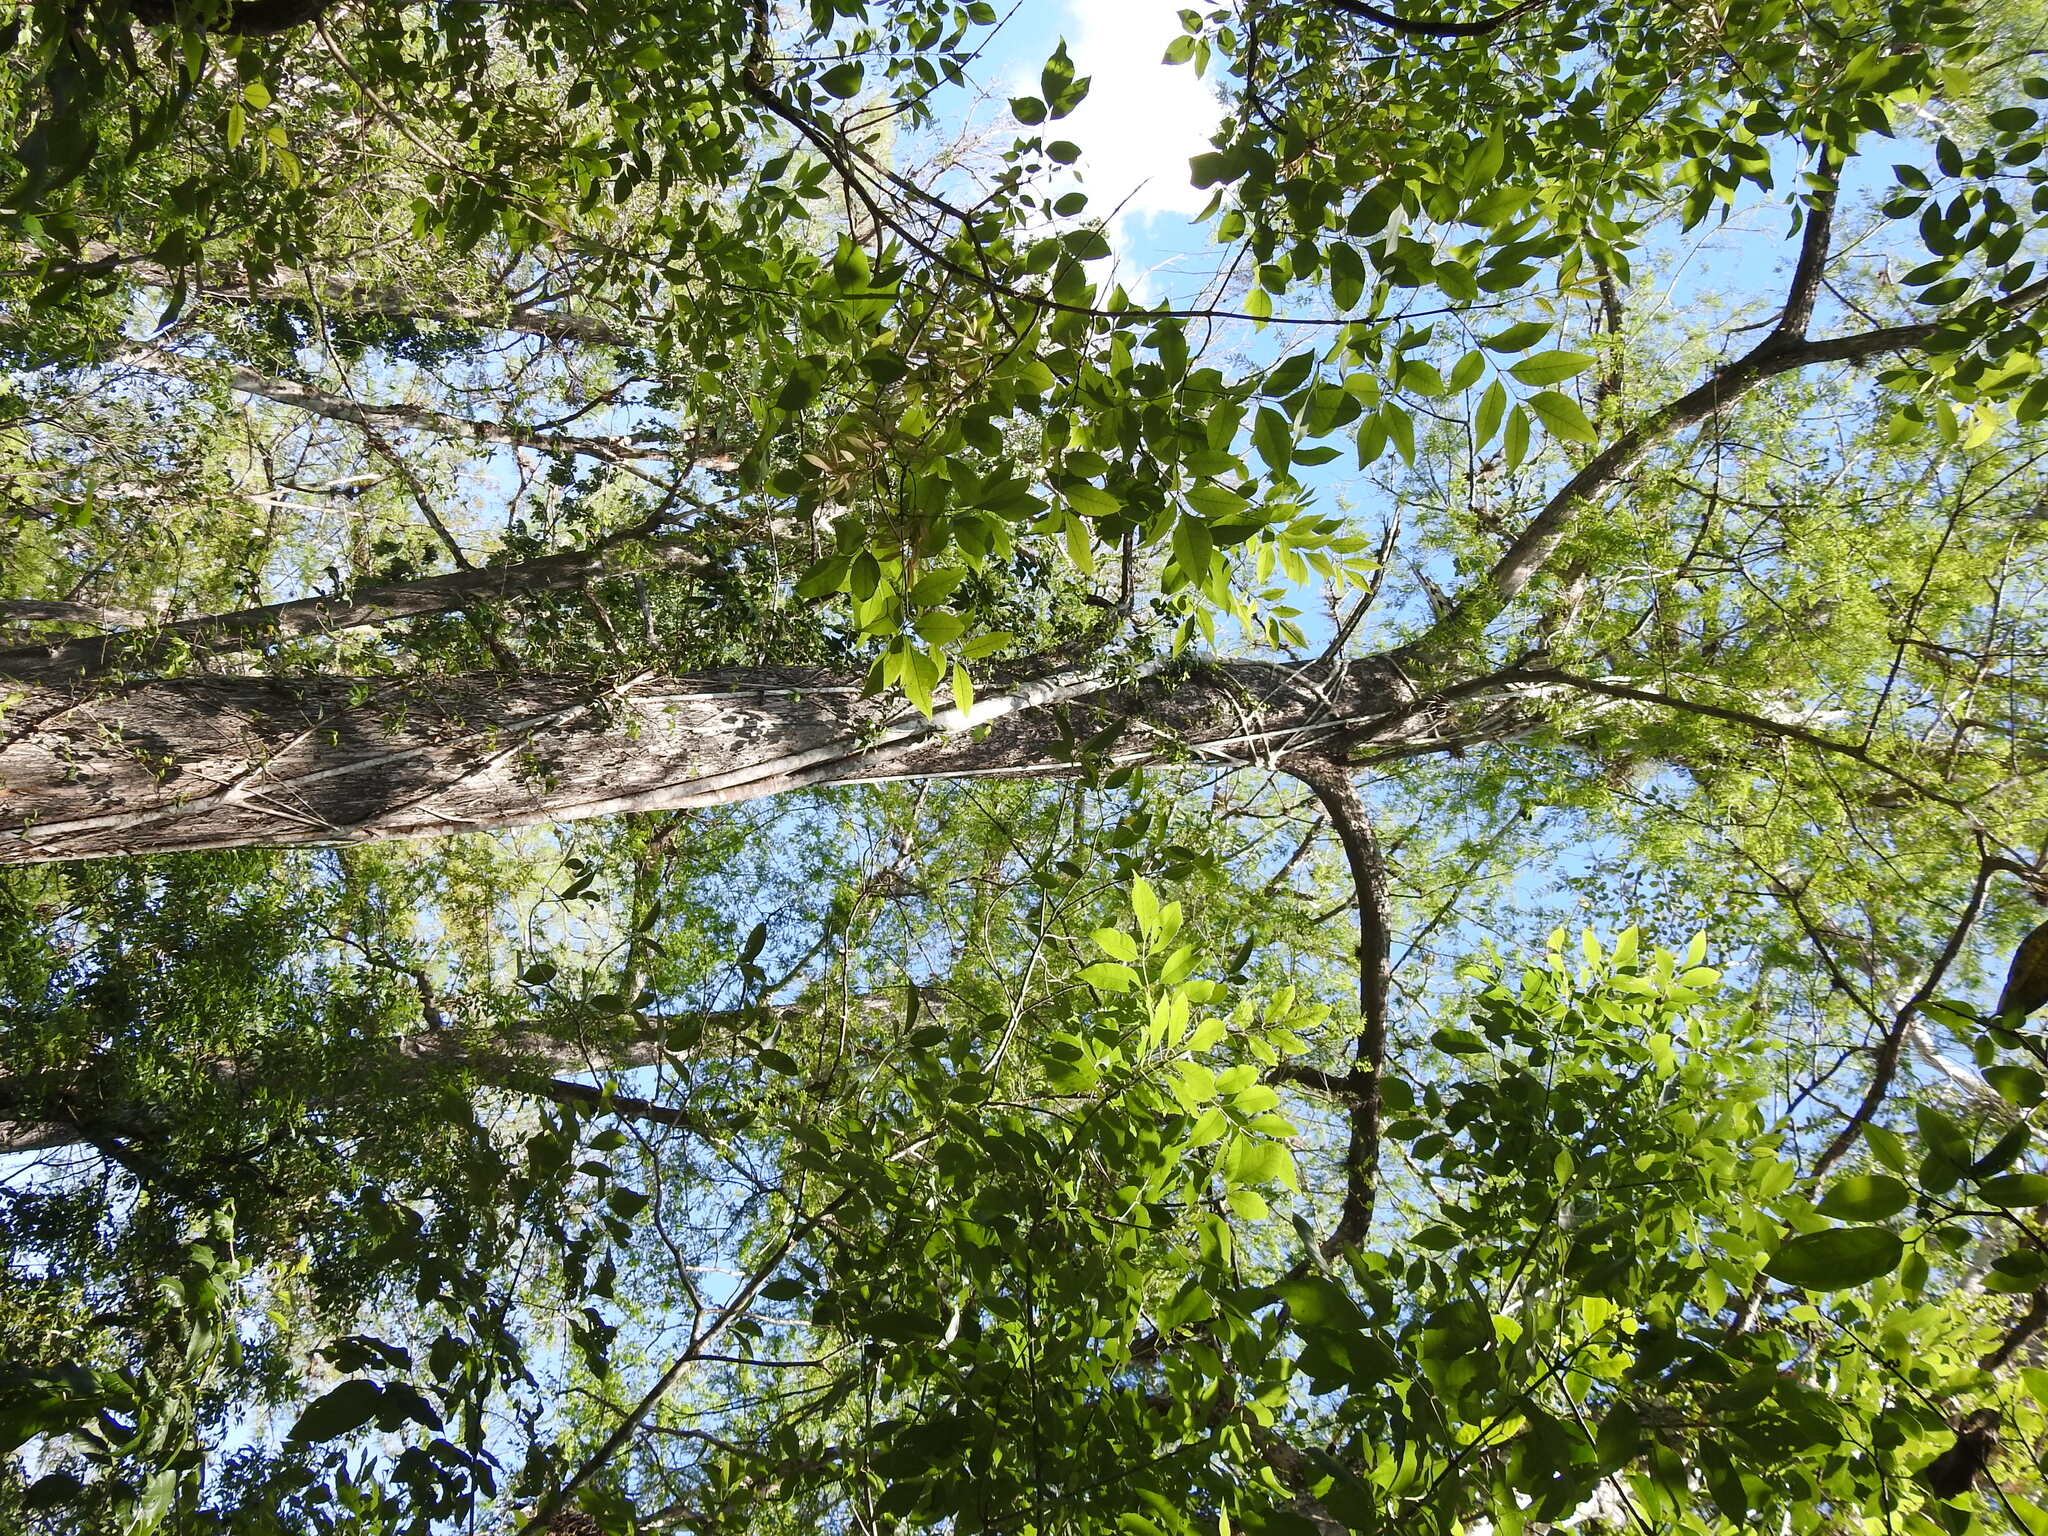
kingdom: Plantae
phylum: Tracheophyta
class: Magnoliopsida
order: Rosales
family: Moraceae
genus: Ficus
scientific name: Ficus aurea
